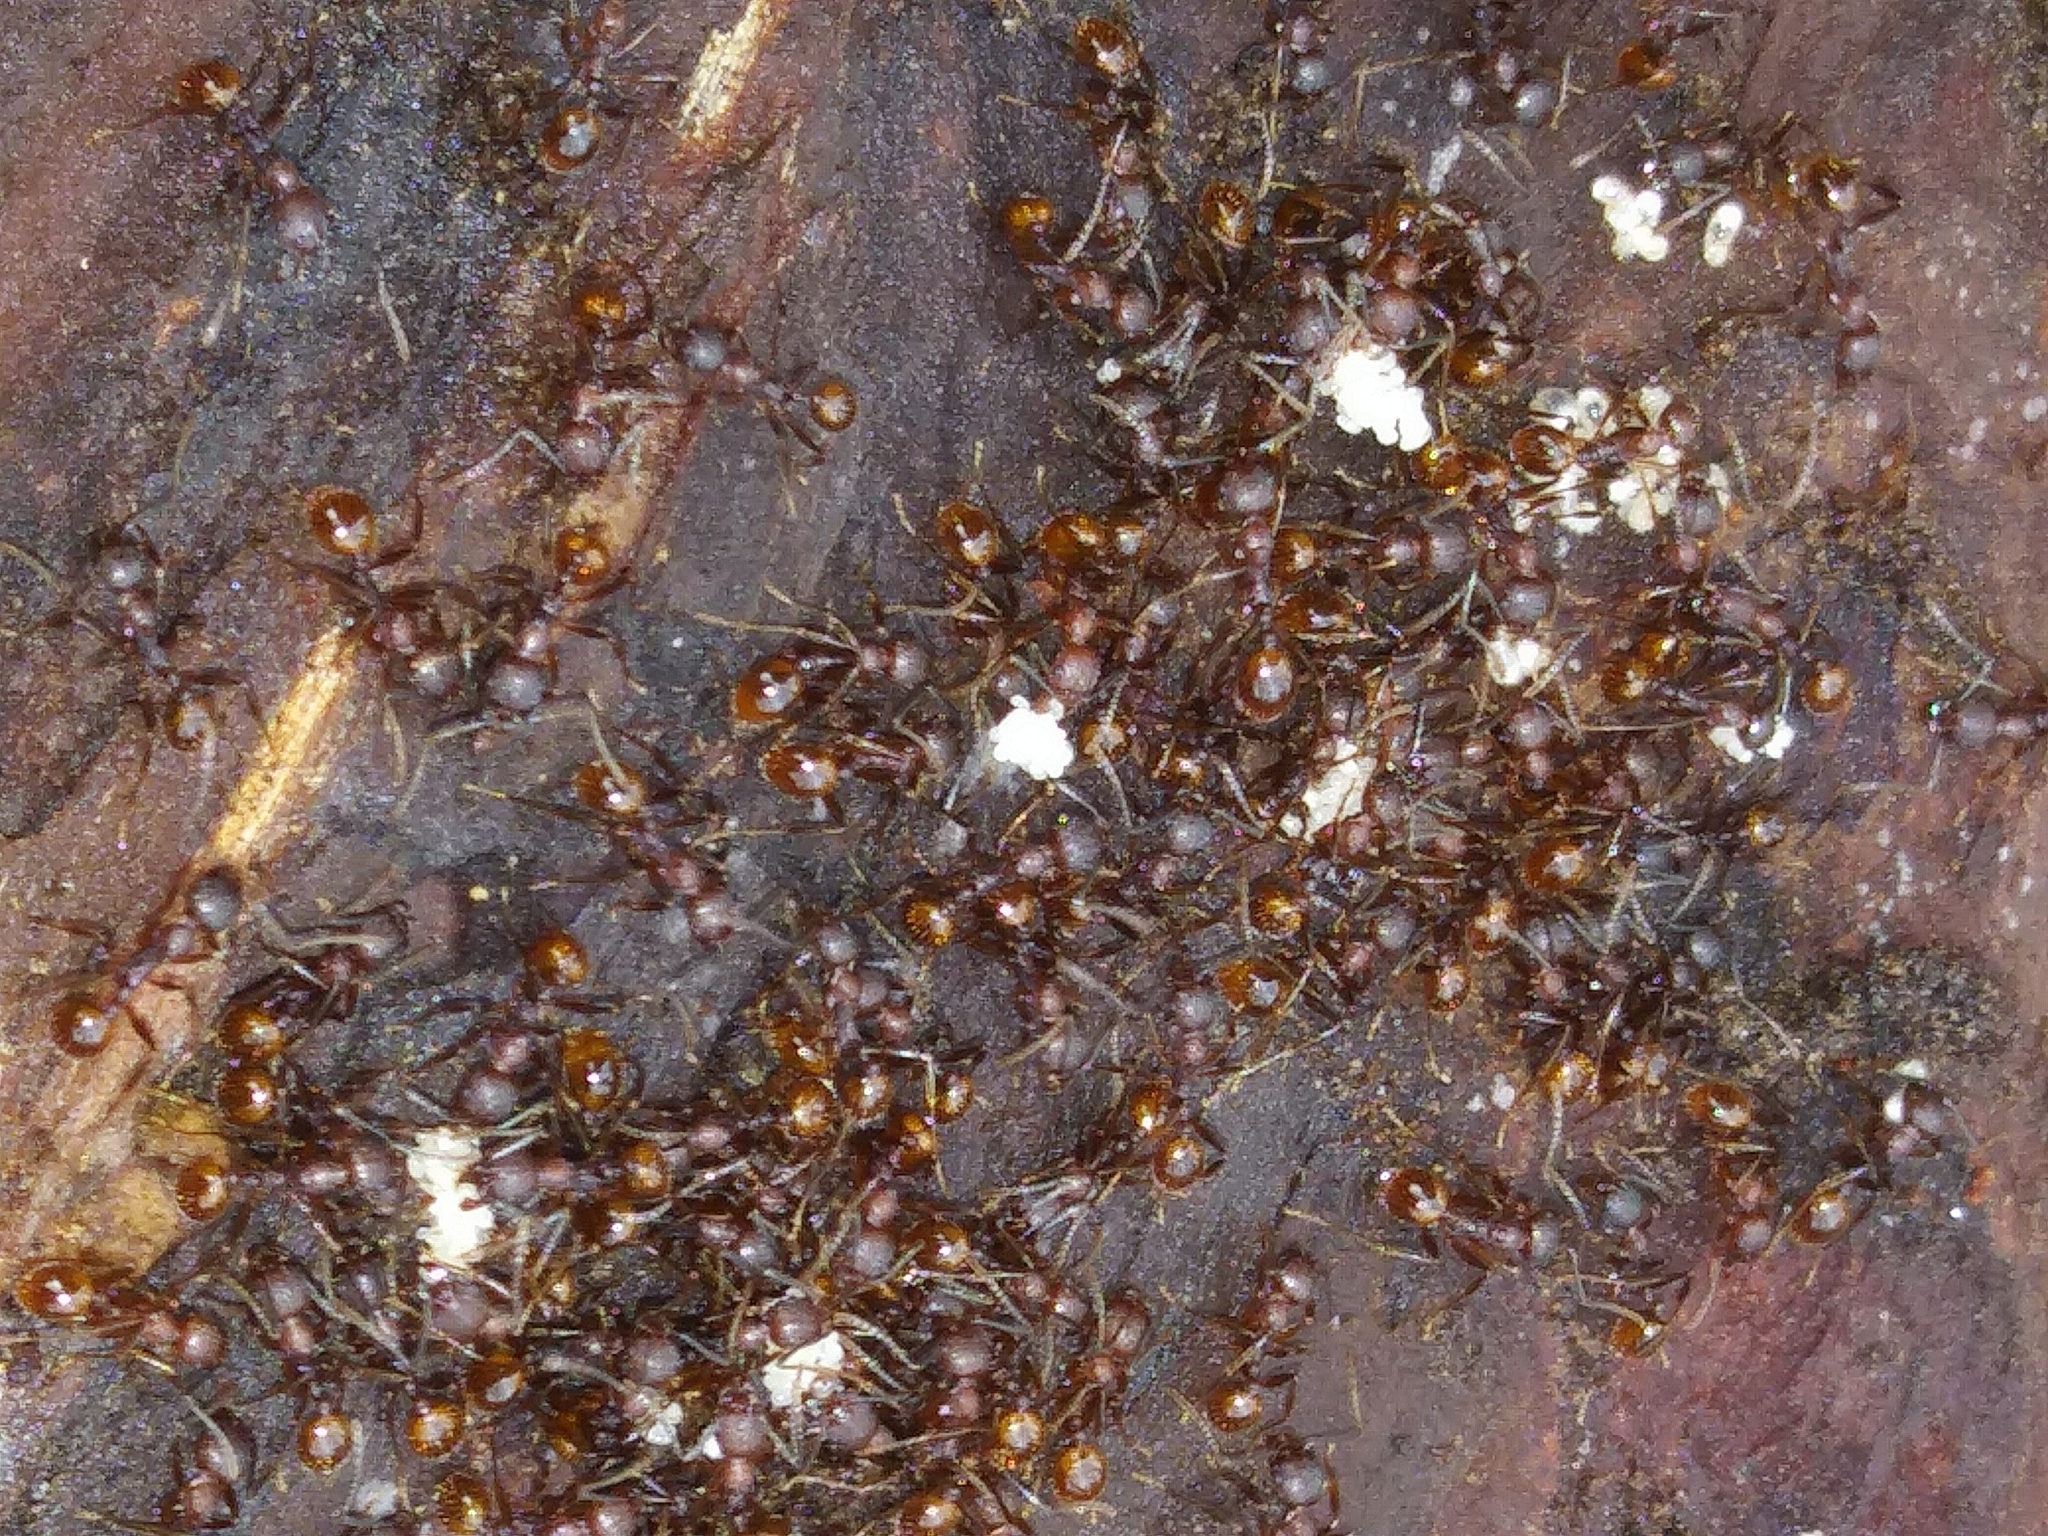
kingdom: Animalia
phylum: Arthropoda
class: Insecta
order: Hymenoptera
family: Formicidae
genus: Aphaenogaster
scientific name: Aphaenogaster fulva
